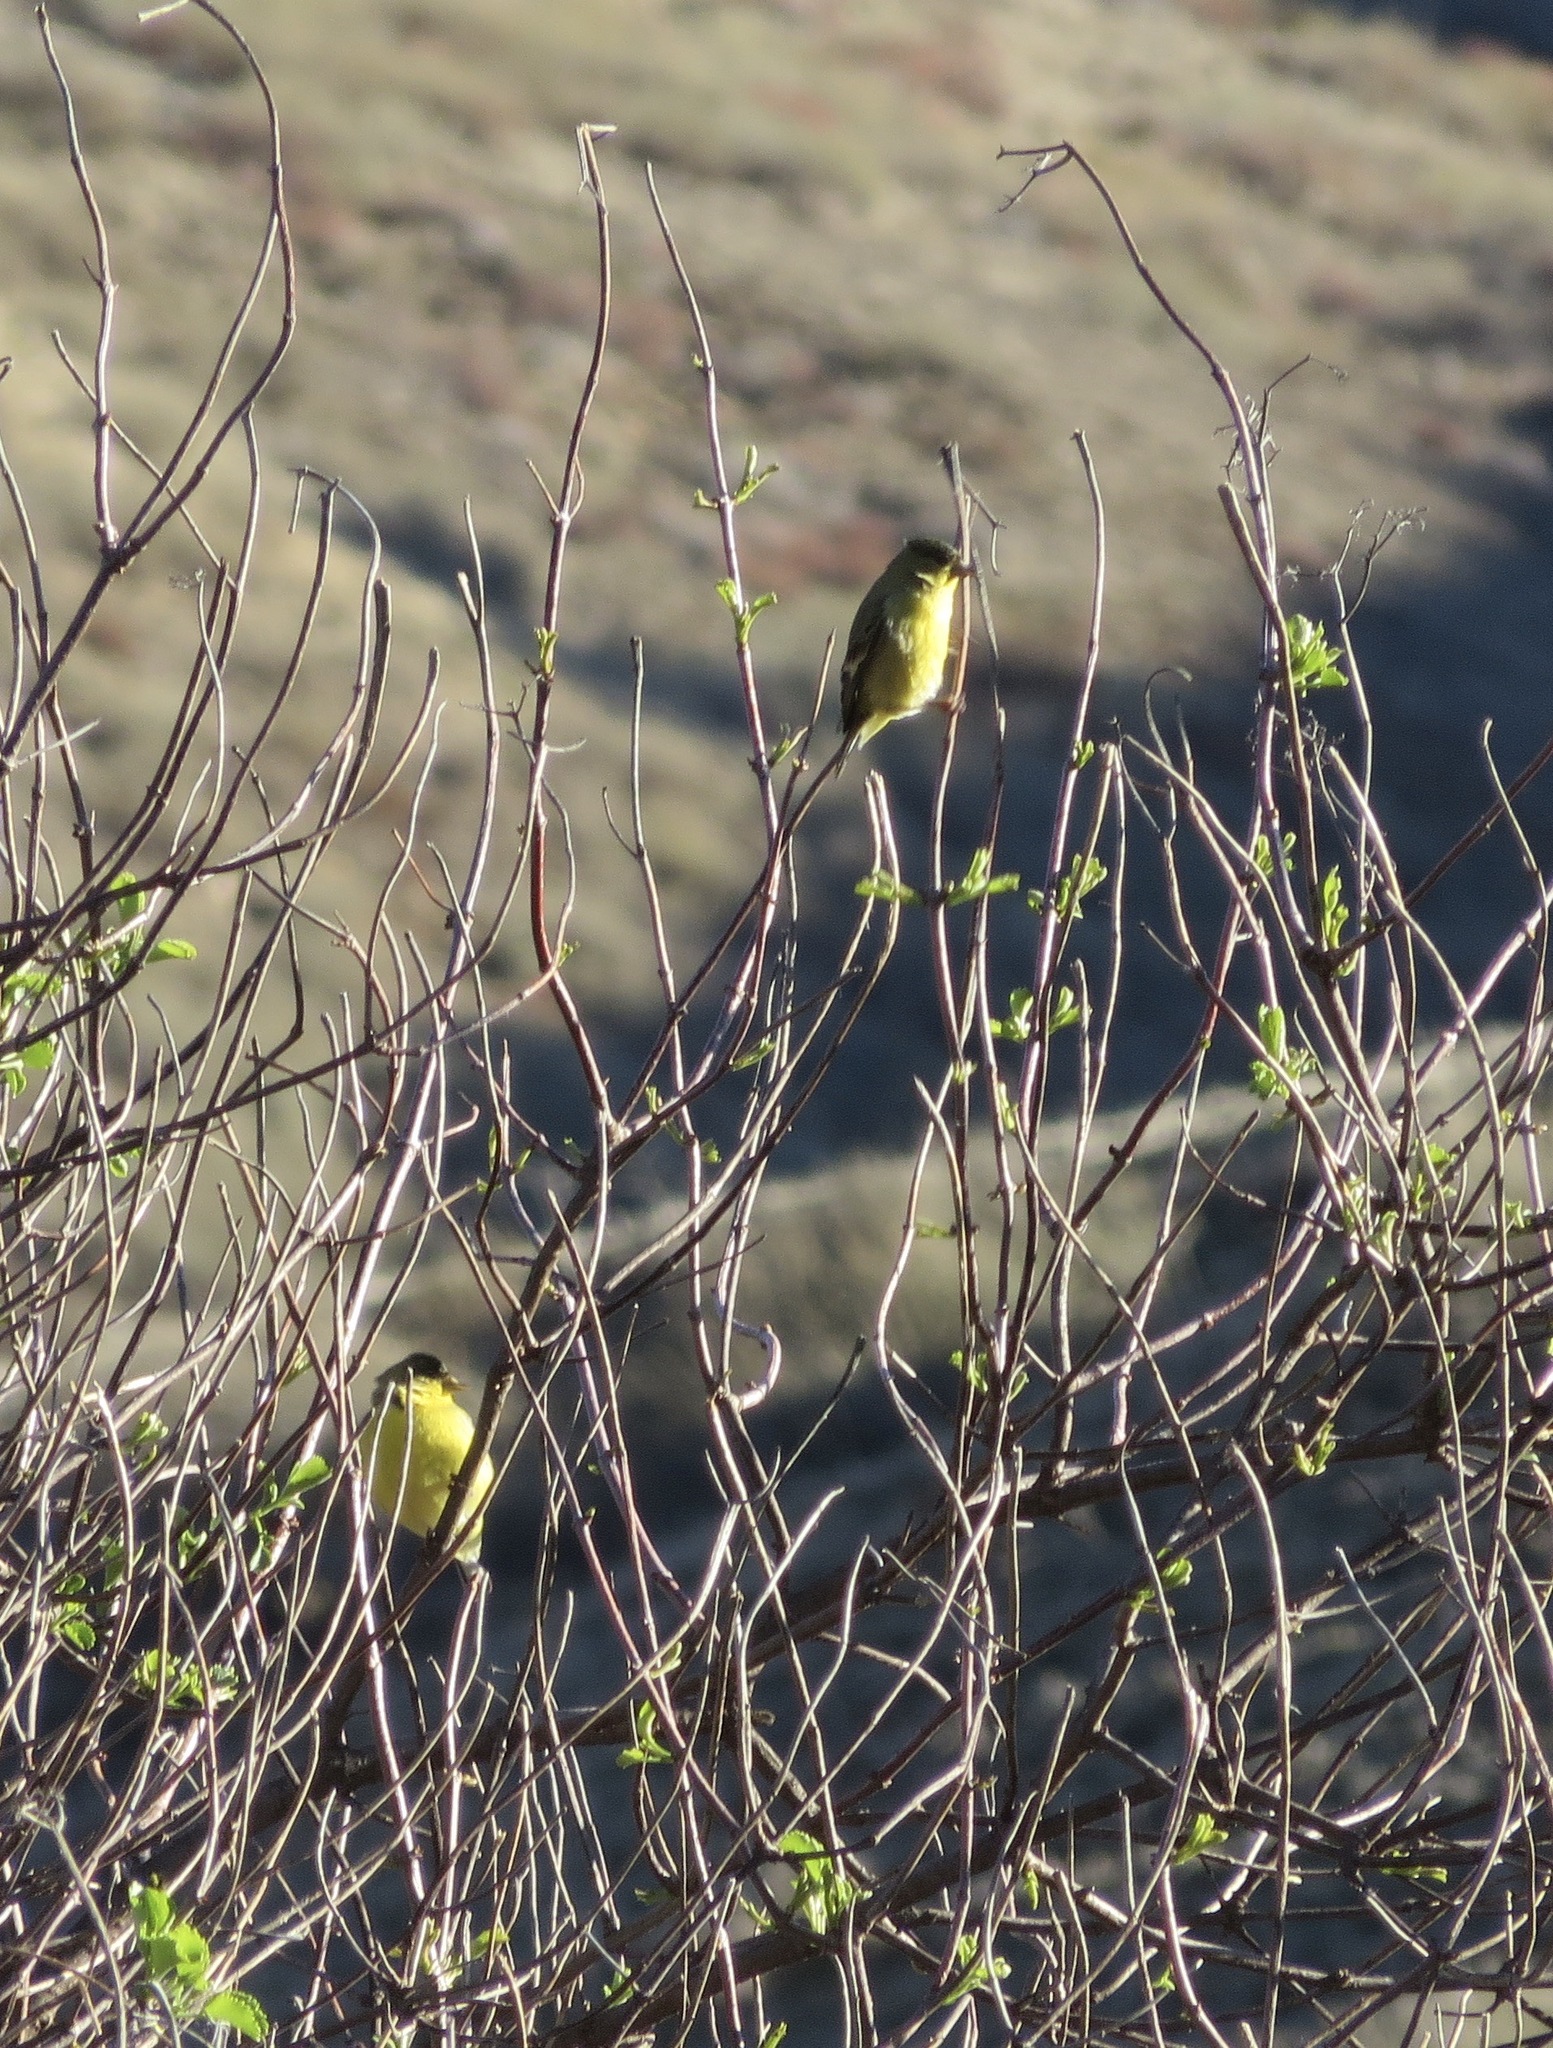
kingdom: Animalia
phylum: Chordata
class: Aves
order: Passeriformes
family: Fringillidae
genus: Spinus
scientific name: Spinus psaltria
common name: Lesser goldfinch
